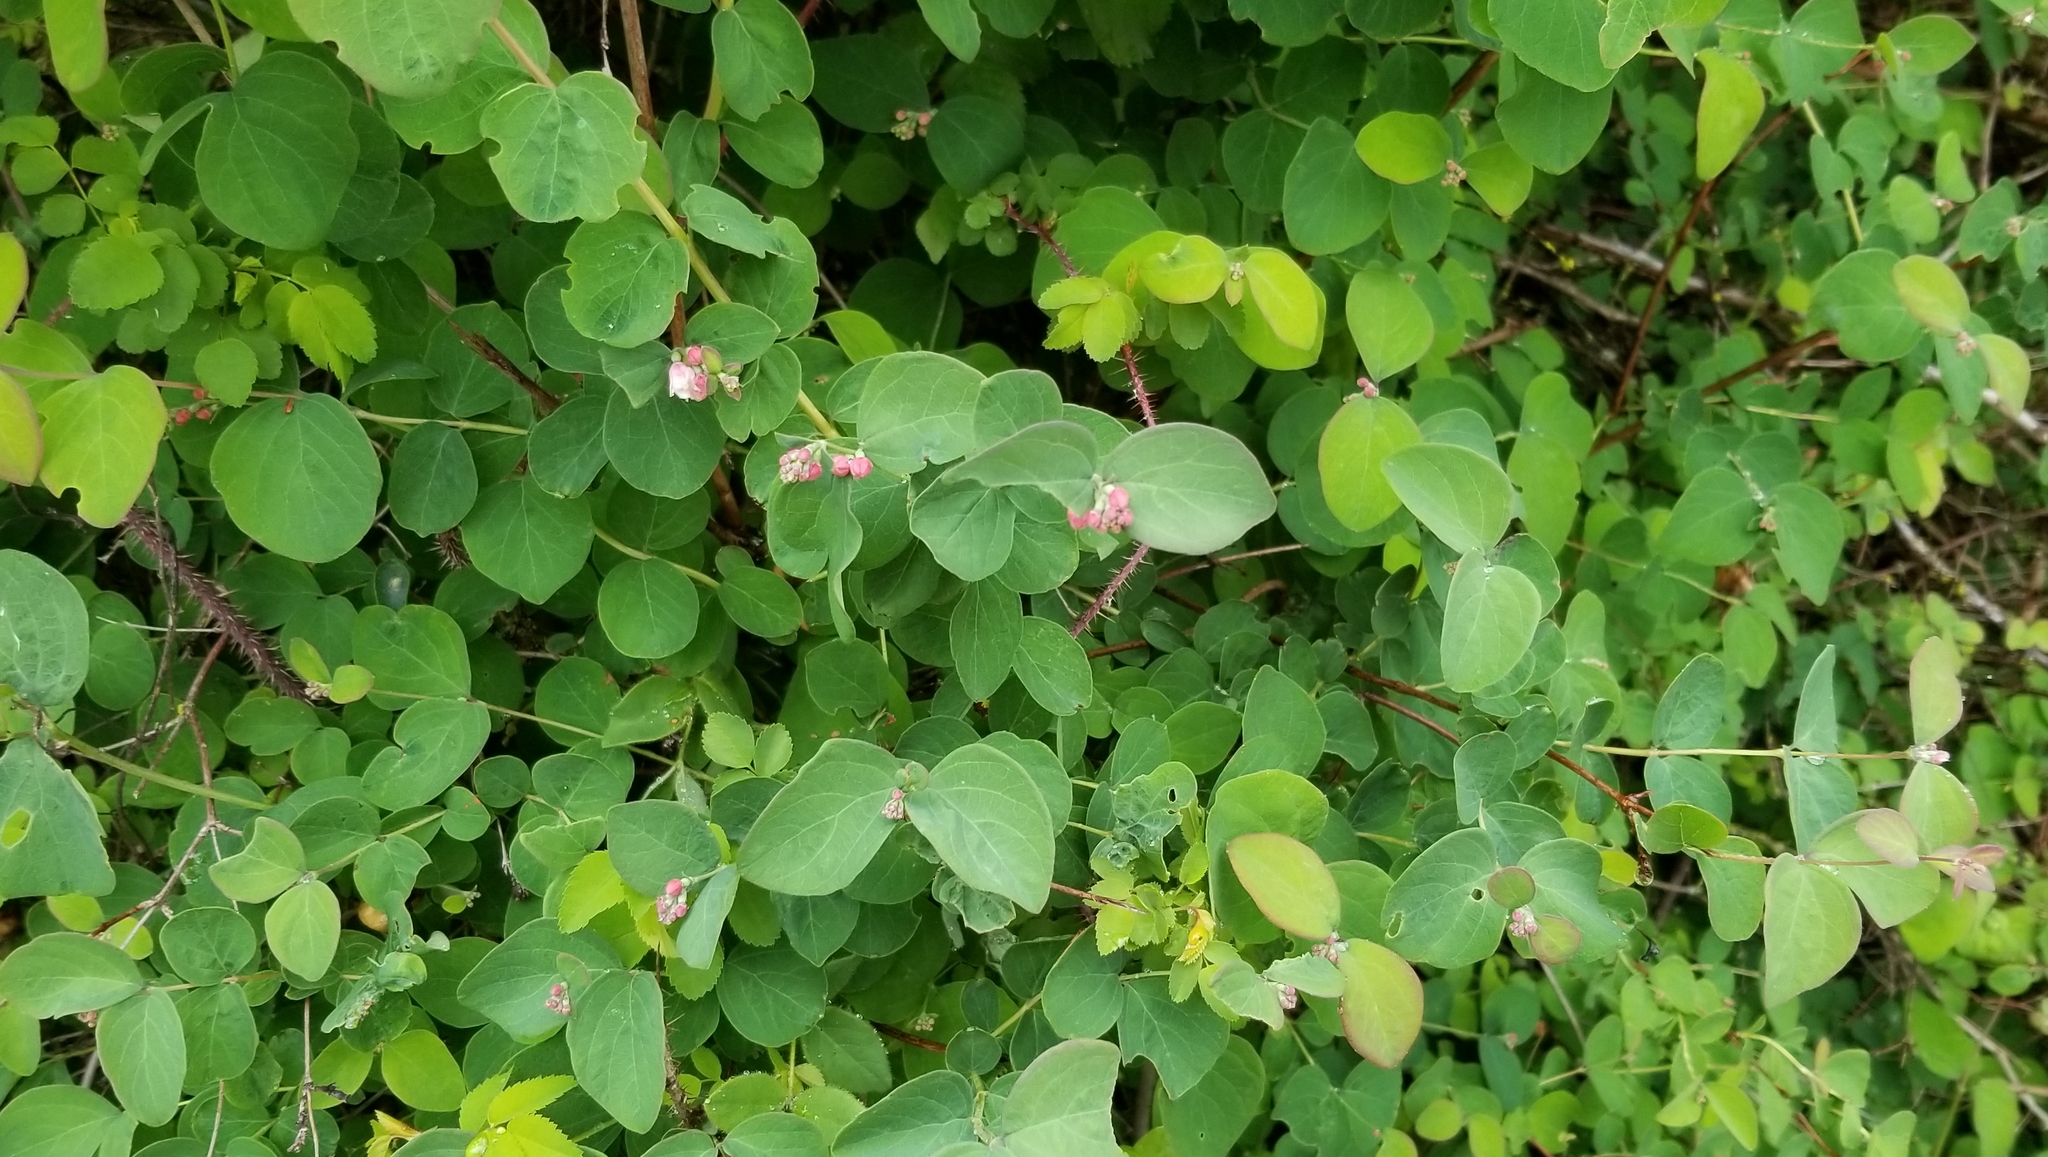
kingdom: Plantae
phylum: Tracheophyta
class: Magnoliopsida
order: Dipsacales
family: Caprifoliaceae
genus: Symphoricarpos
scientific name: Symphoricarpos albus
